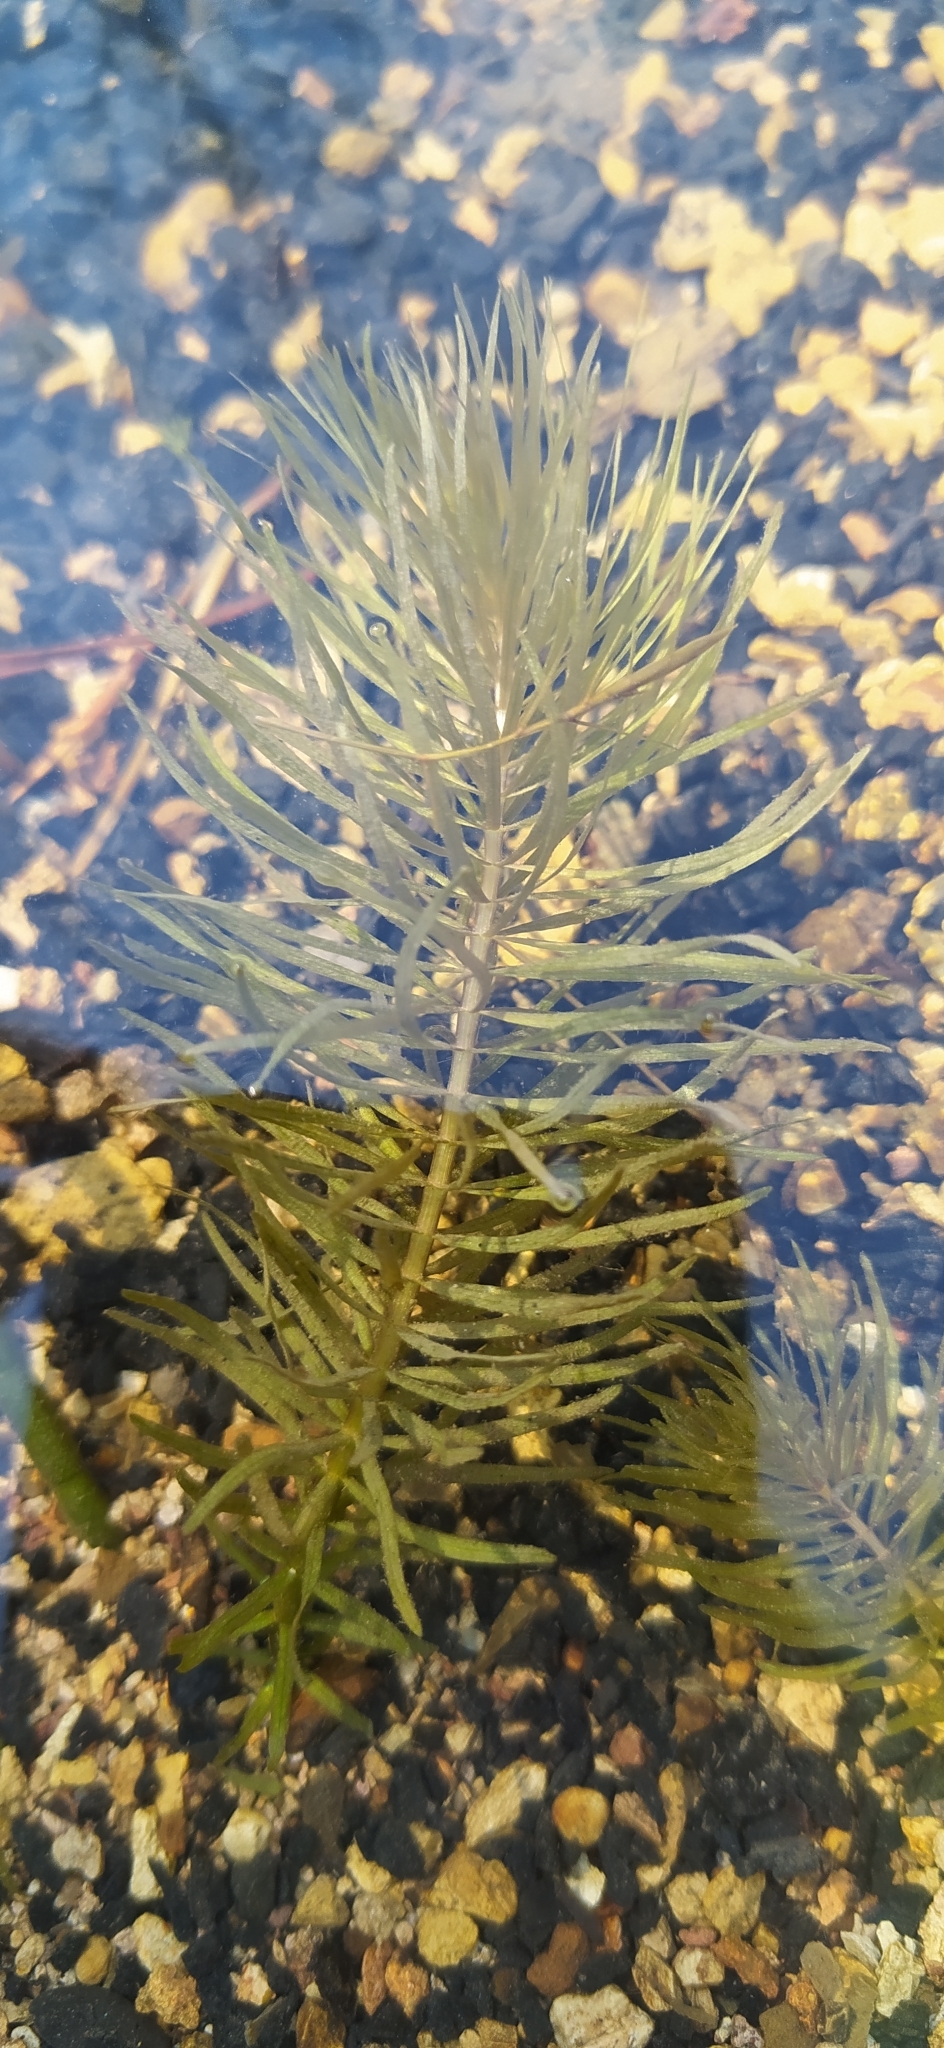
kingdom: Plantae
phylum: Tracheophyta
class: Magnoliopsida
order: Lamiales
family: Plantaginaceae
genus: Hippuris
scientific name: Hippuris vulgaris
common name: Mare's-tail
